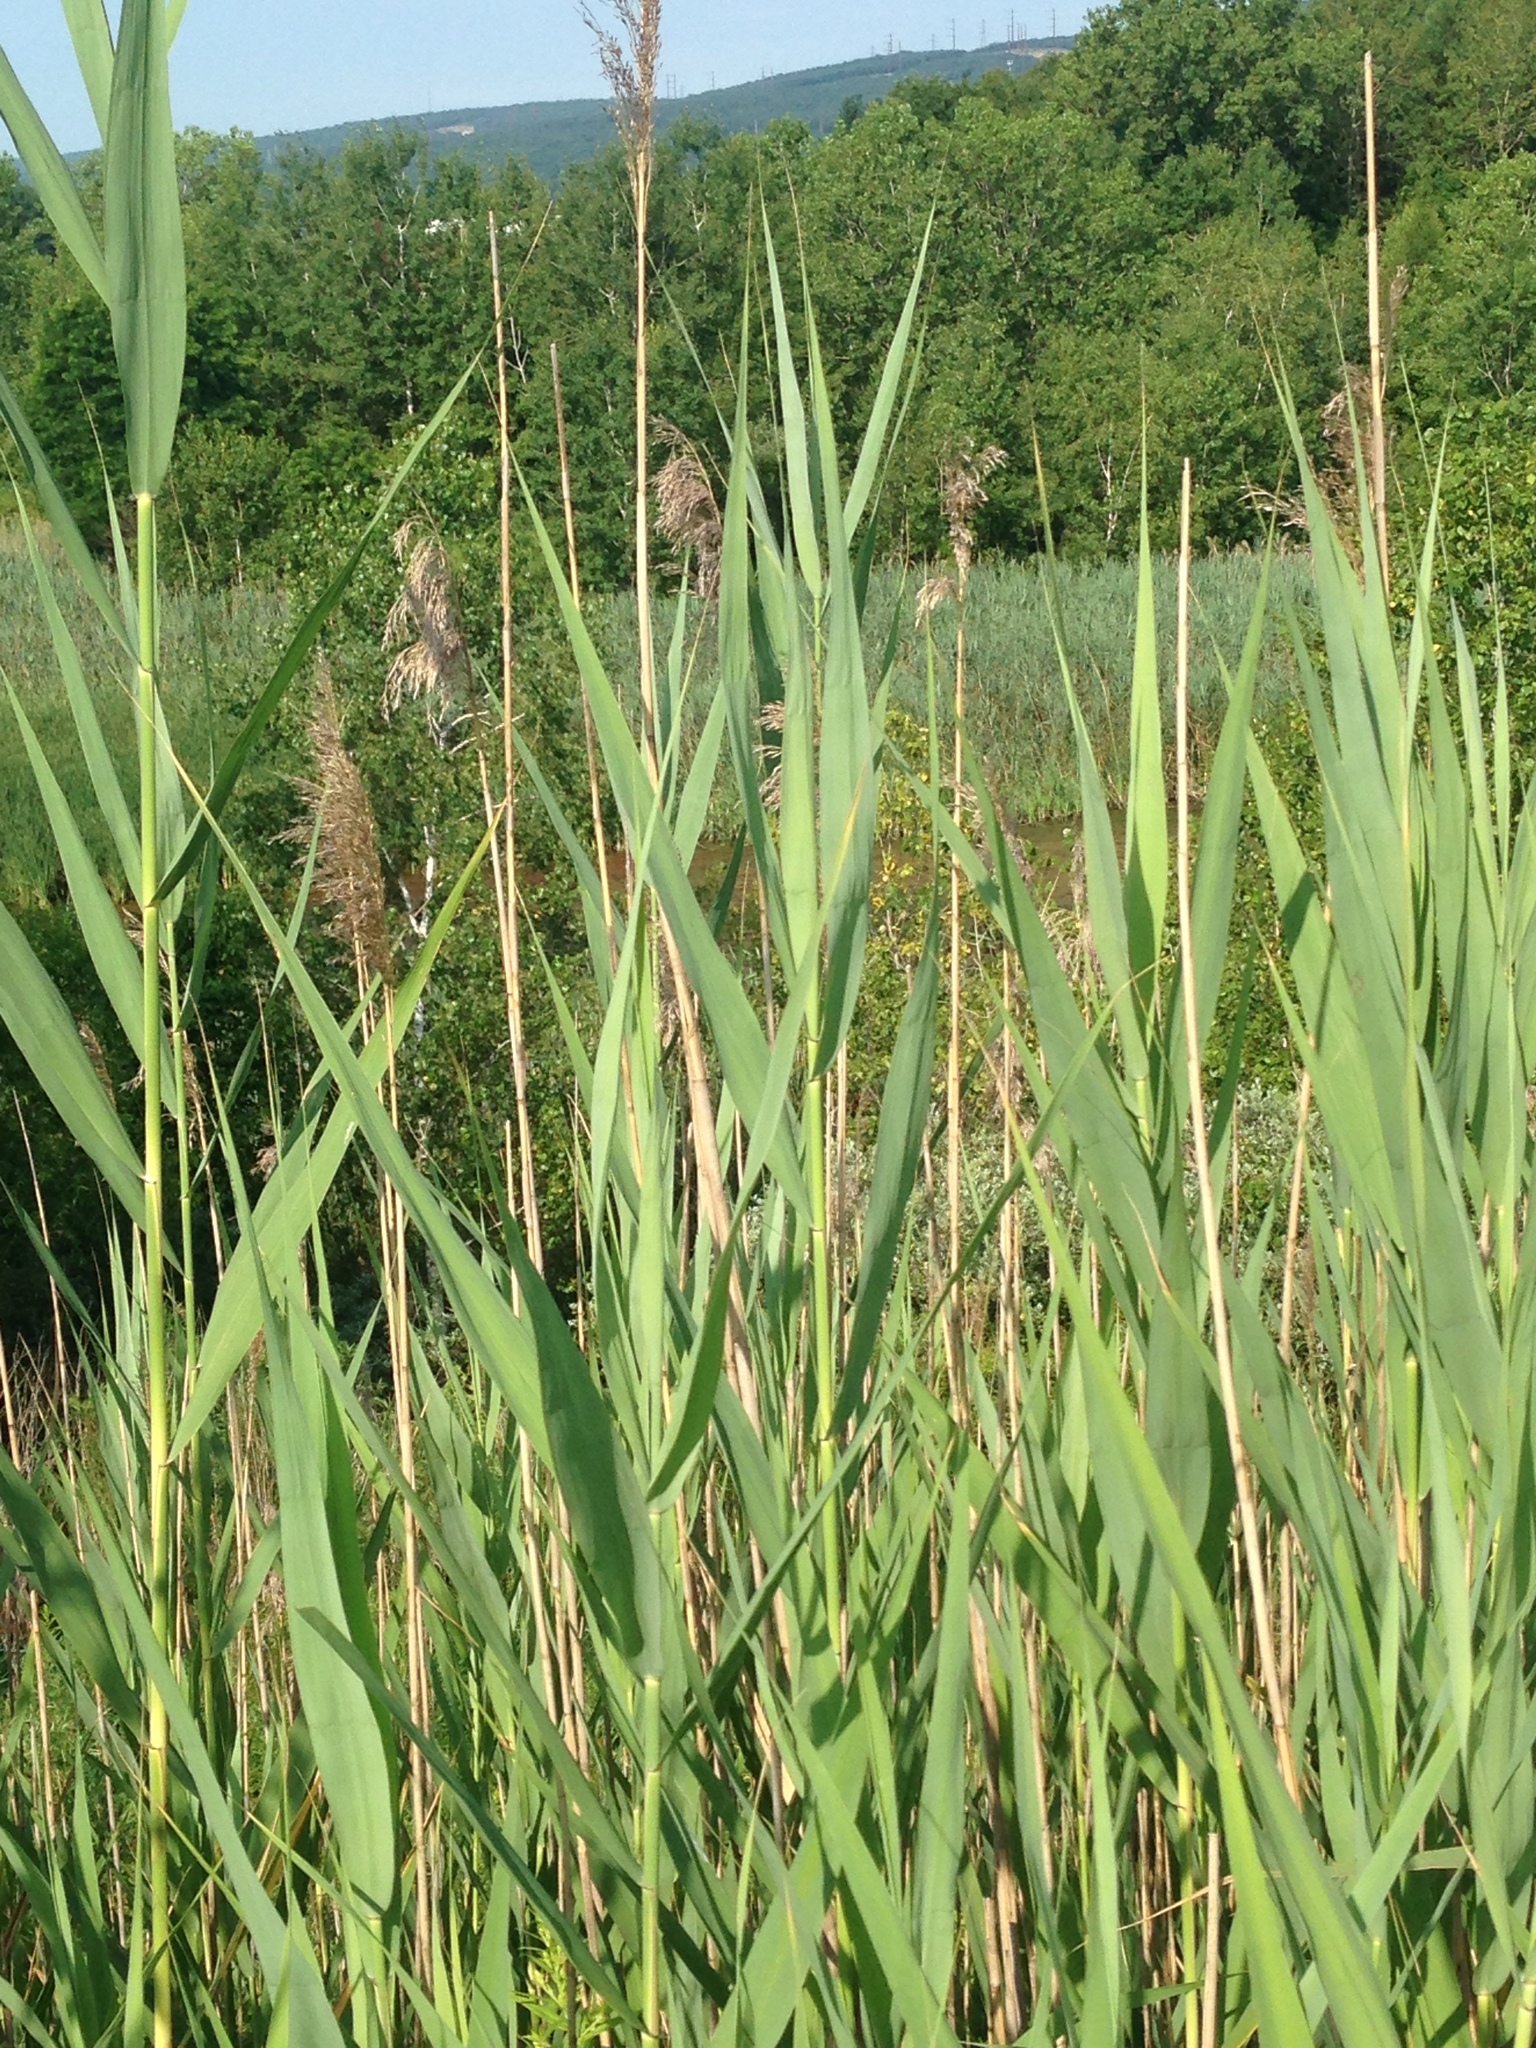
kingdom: Plantae
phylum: Tracheophyta
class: Liliopsida
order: Poales
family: Poaceae
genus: Phragmites
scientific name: Phragmites australis
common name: Common reed
